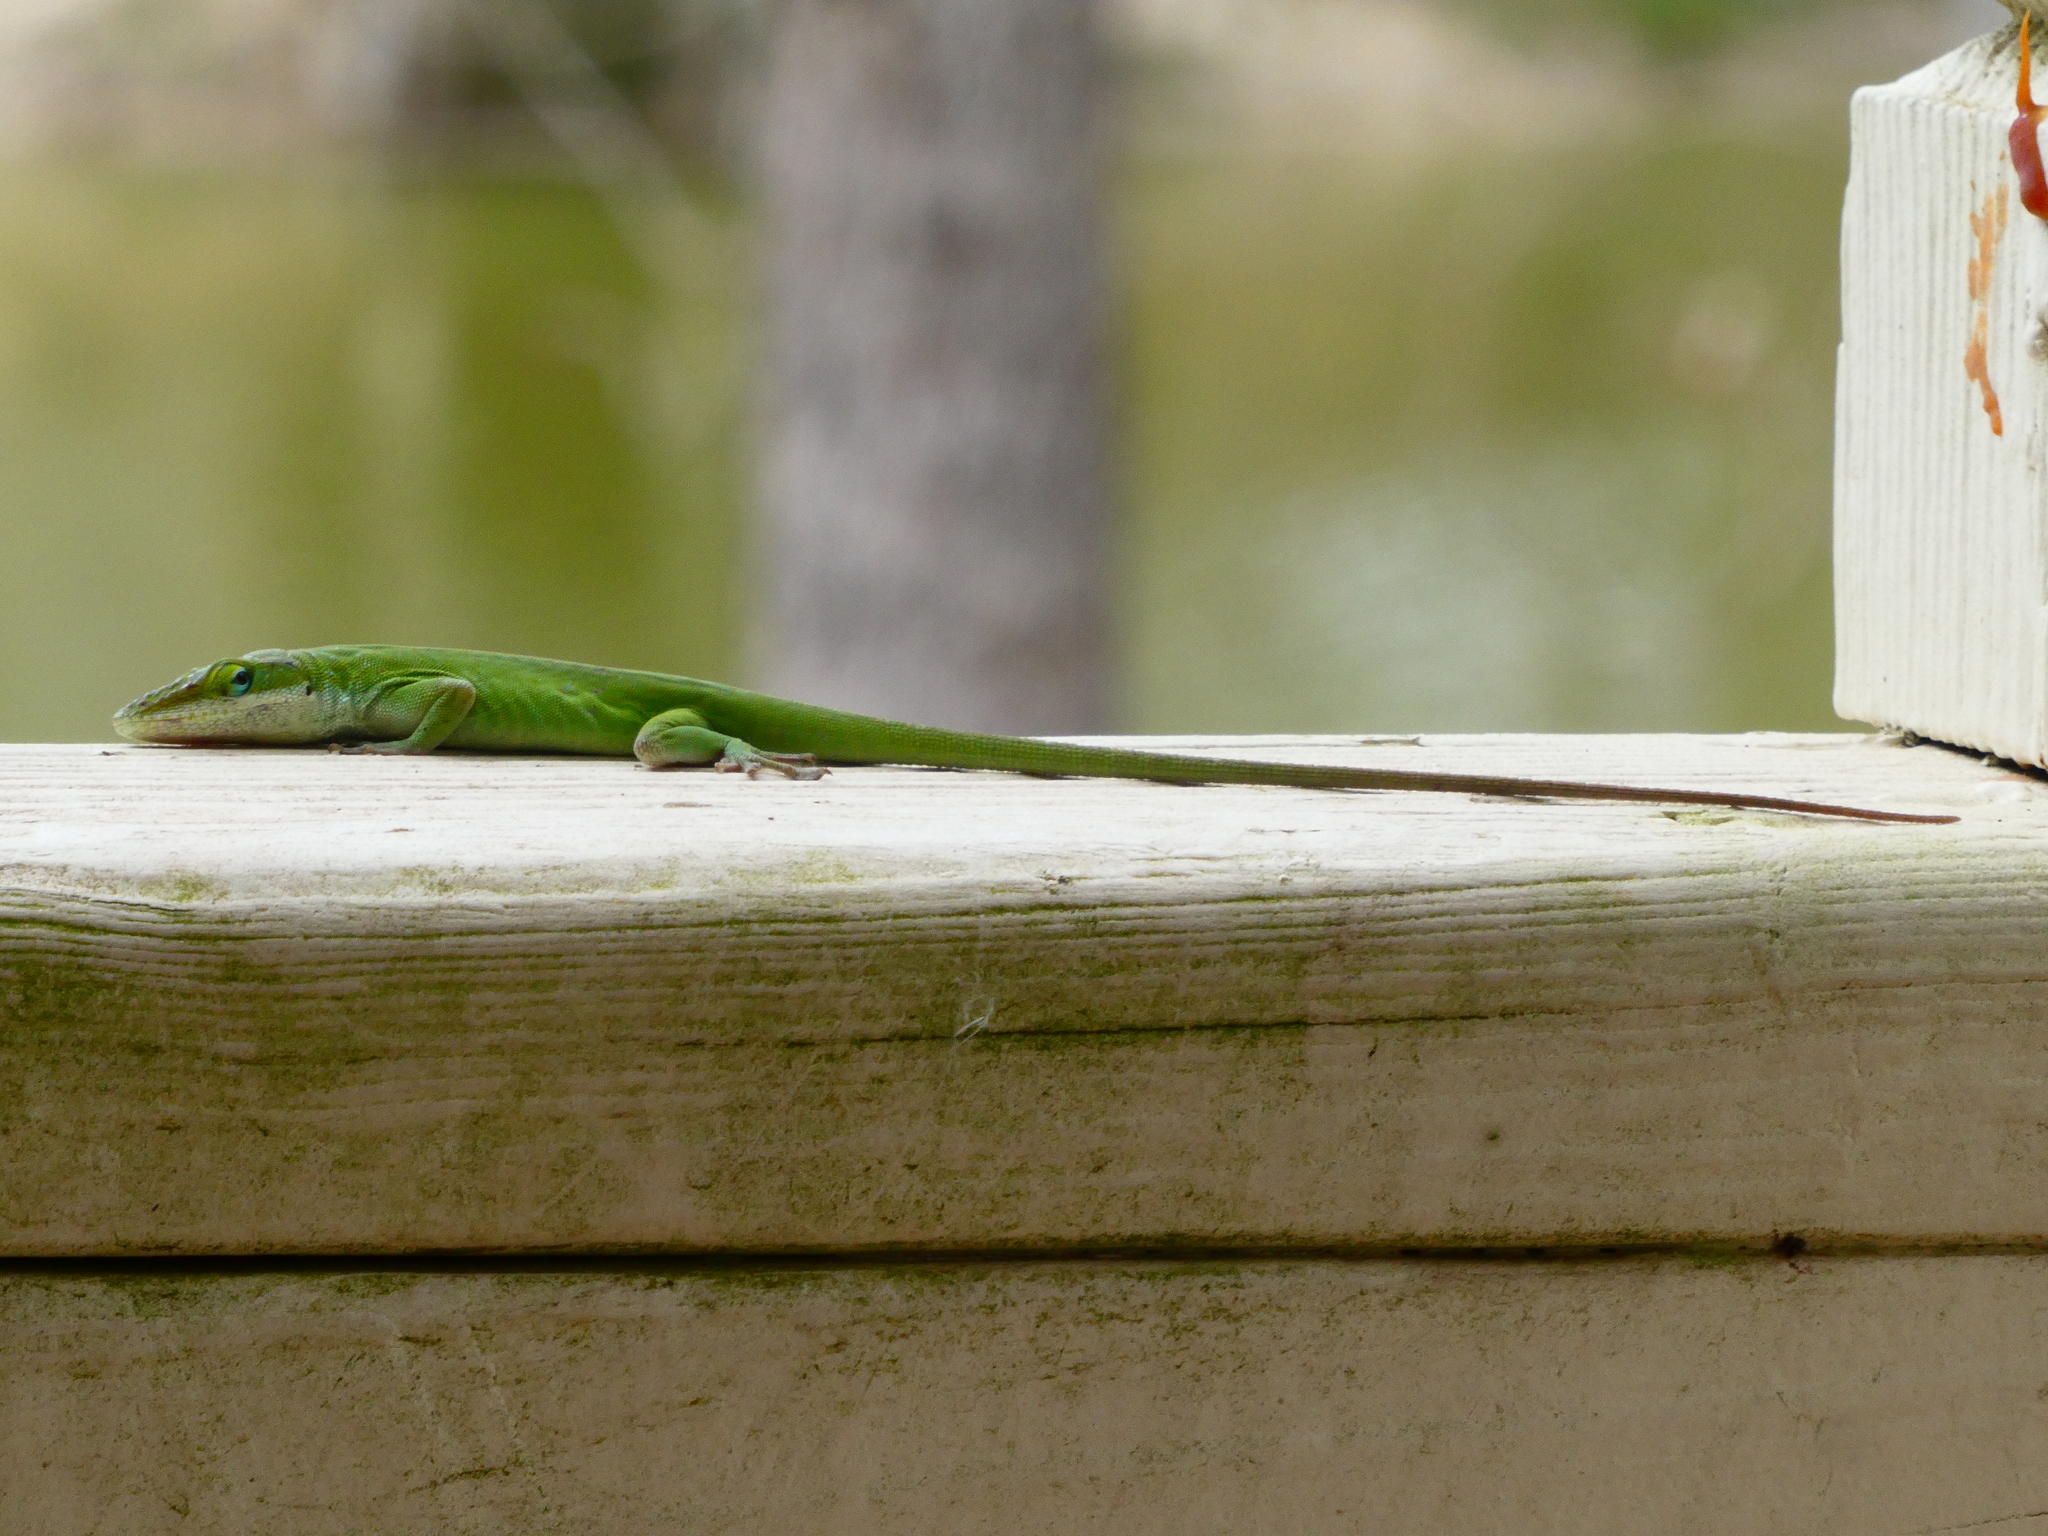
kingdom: Animalia
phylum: Chordata
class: Squamata
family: Dactyloidae
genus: Anolis
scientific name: Anolis carolinensis
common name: Green anole
